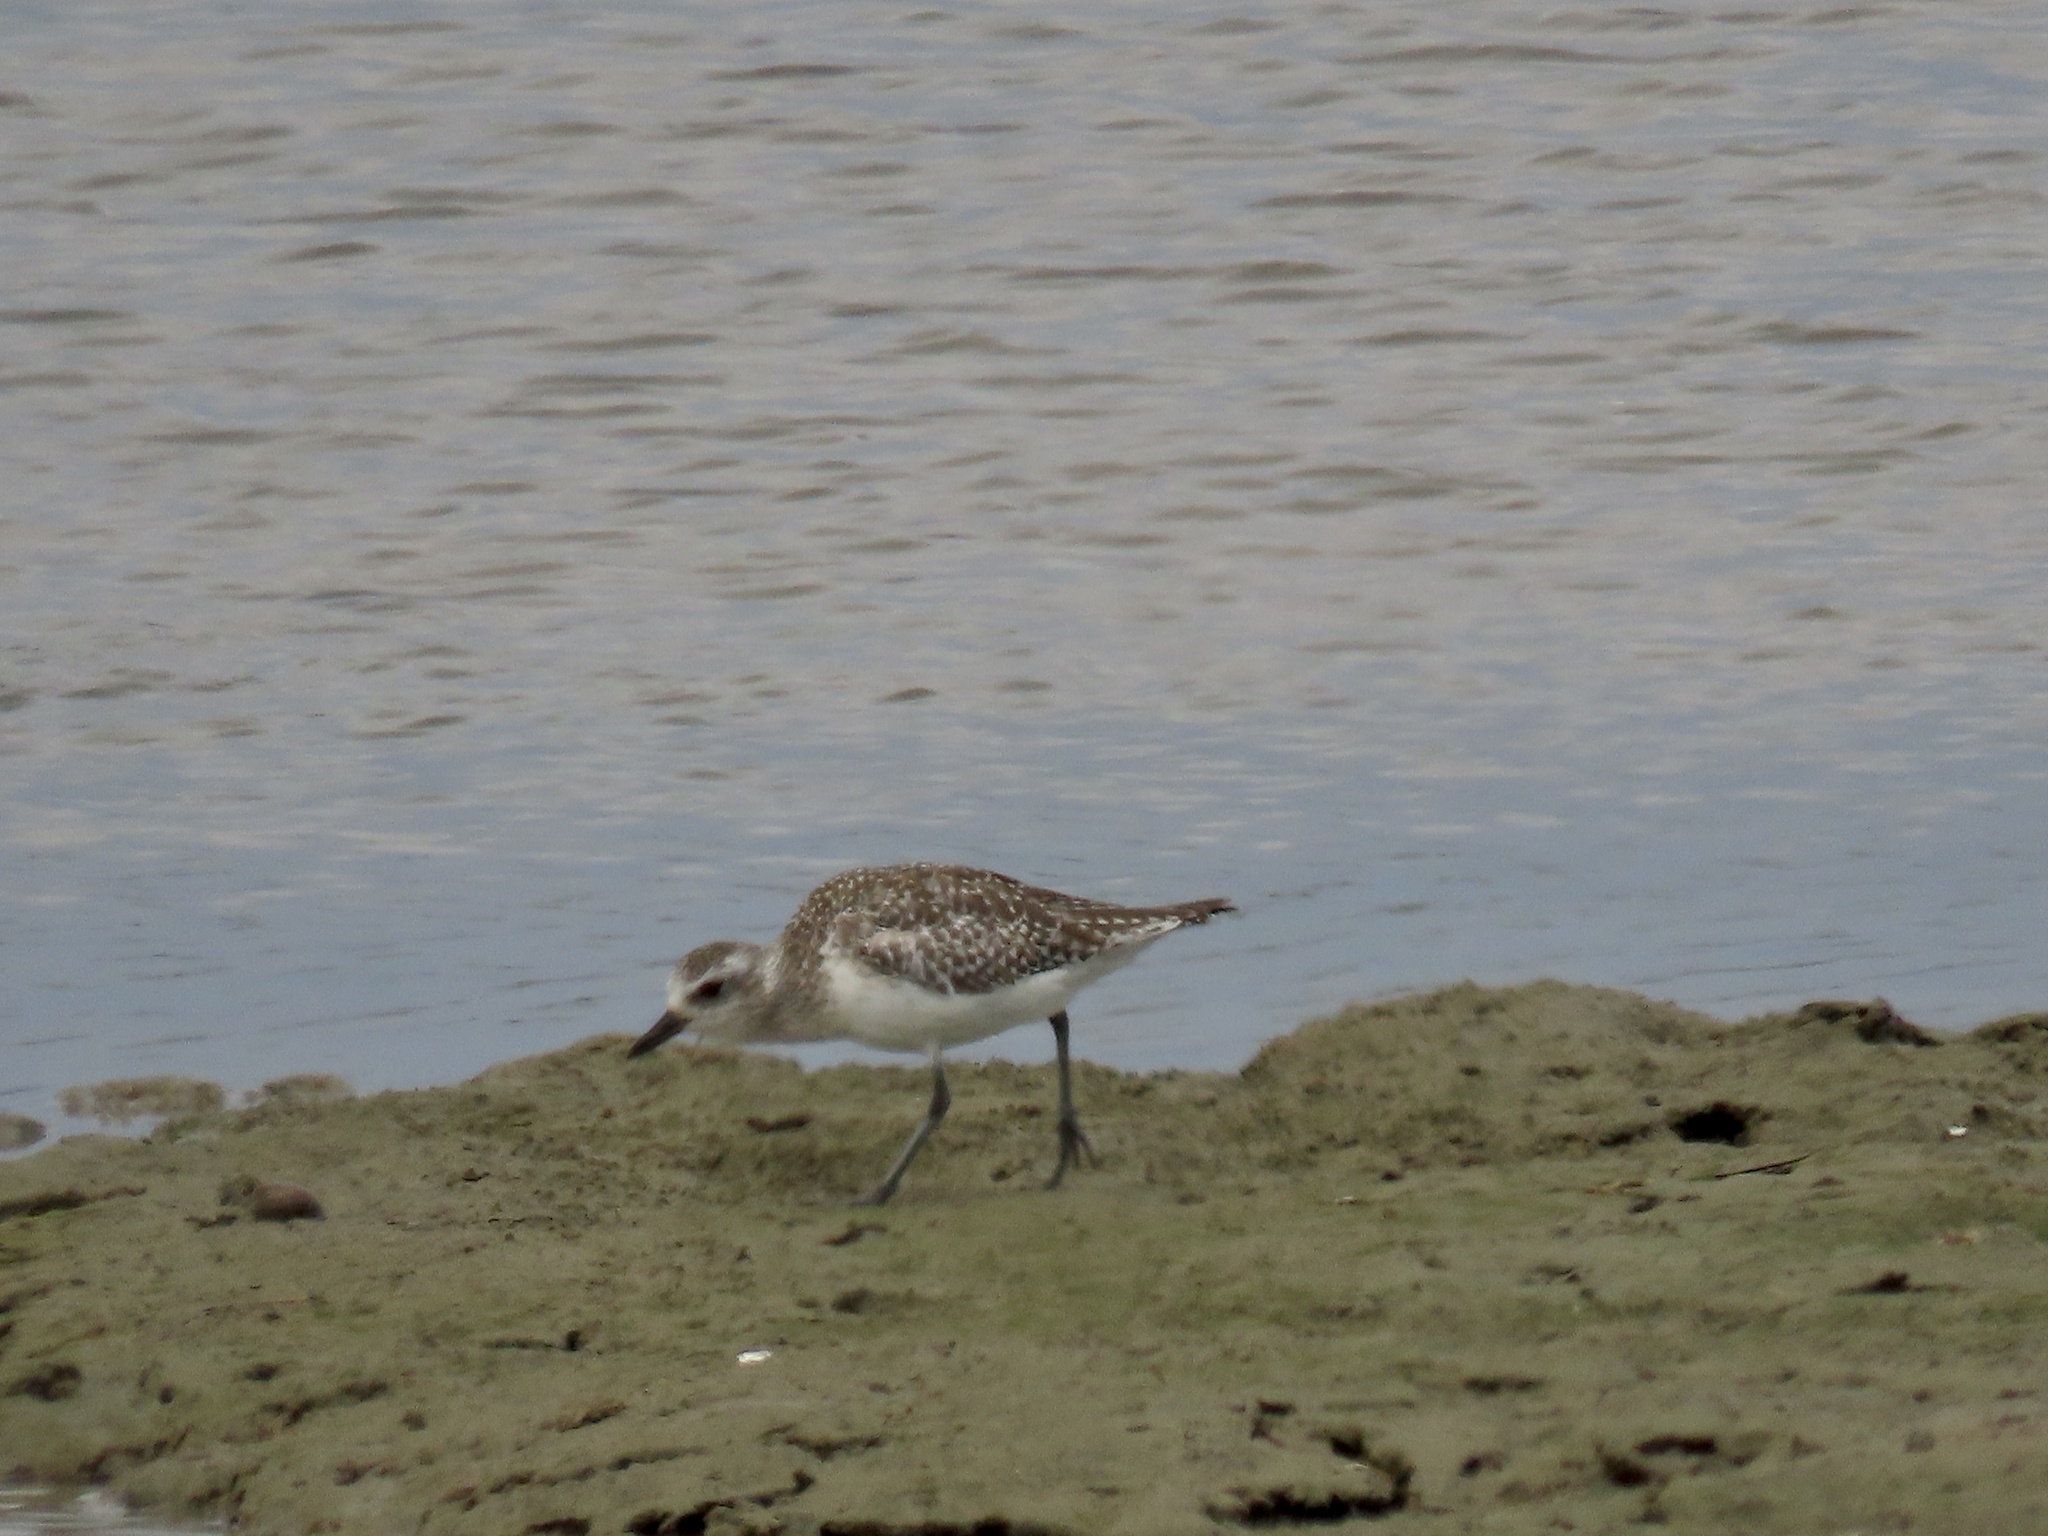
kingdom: Animalia
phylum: Chordata
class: Aves
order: Charadriiformes
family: Charadriidae
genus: Pluvialis
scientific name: Pluvialis squatarola
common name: Grey plover
